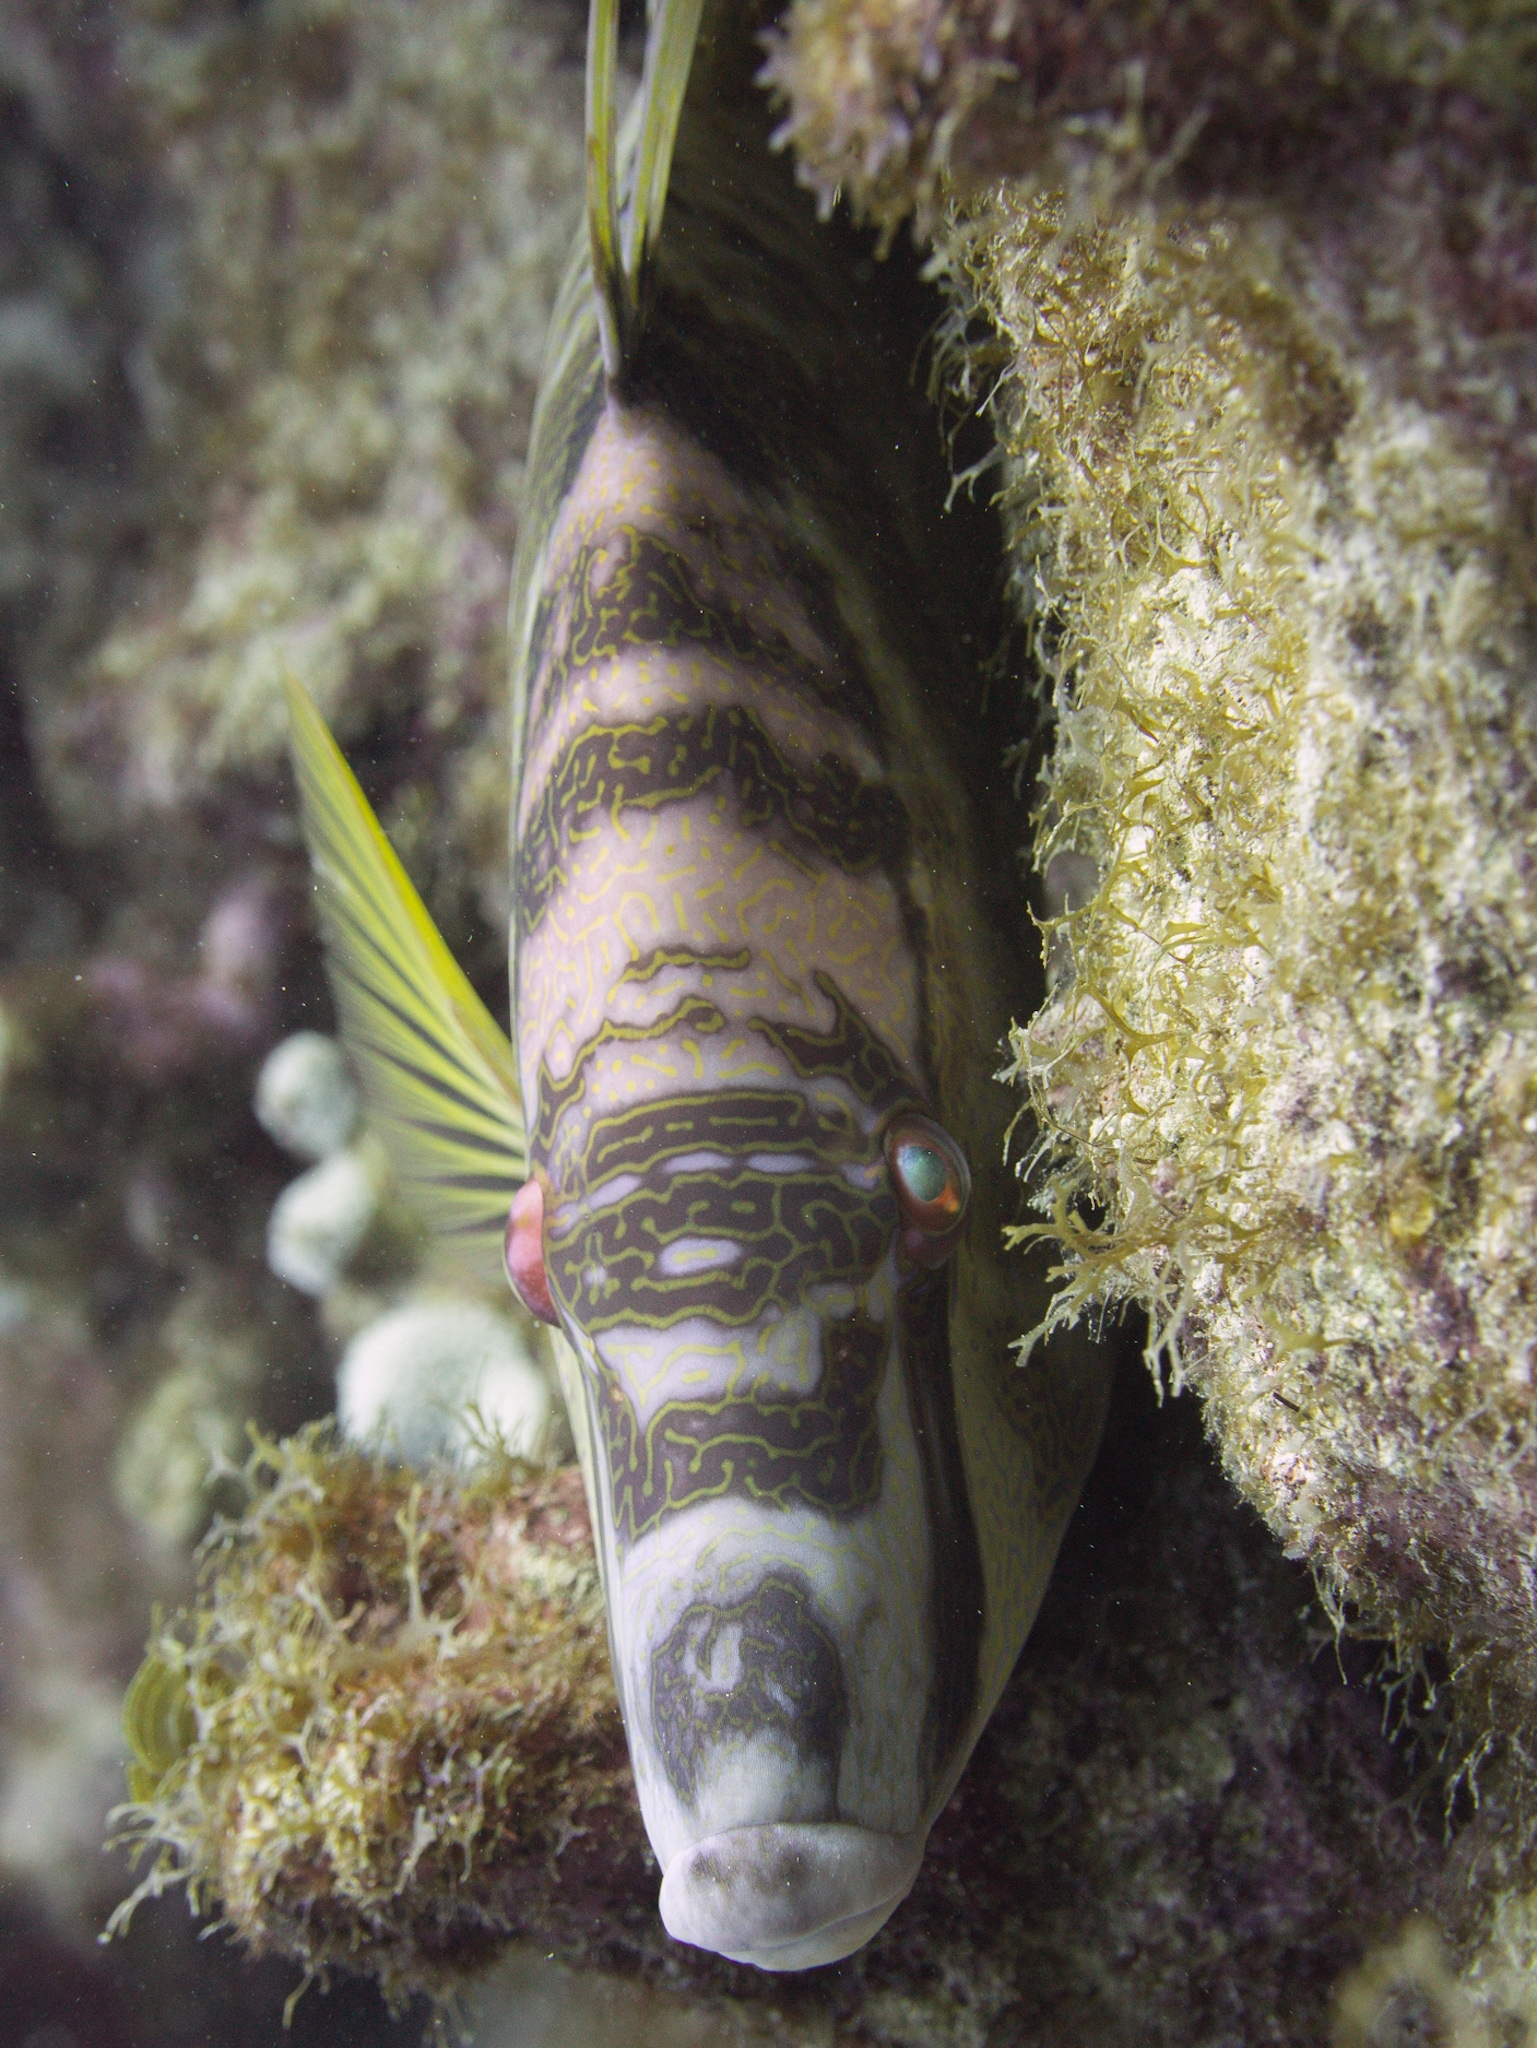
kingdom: Animalia
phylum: Chordata
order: Perciformes
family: Labridae
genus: Lachnolaimus
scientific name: Lachnolaimus maximus
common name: Hogfish
